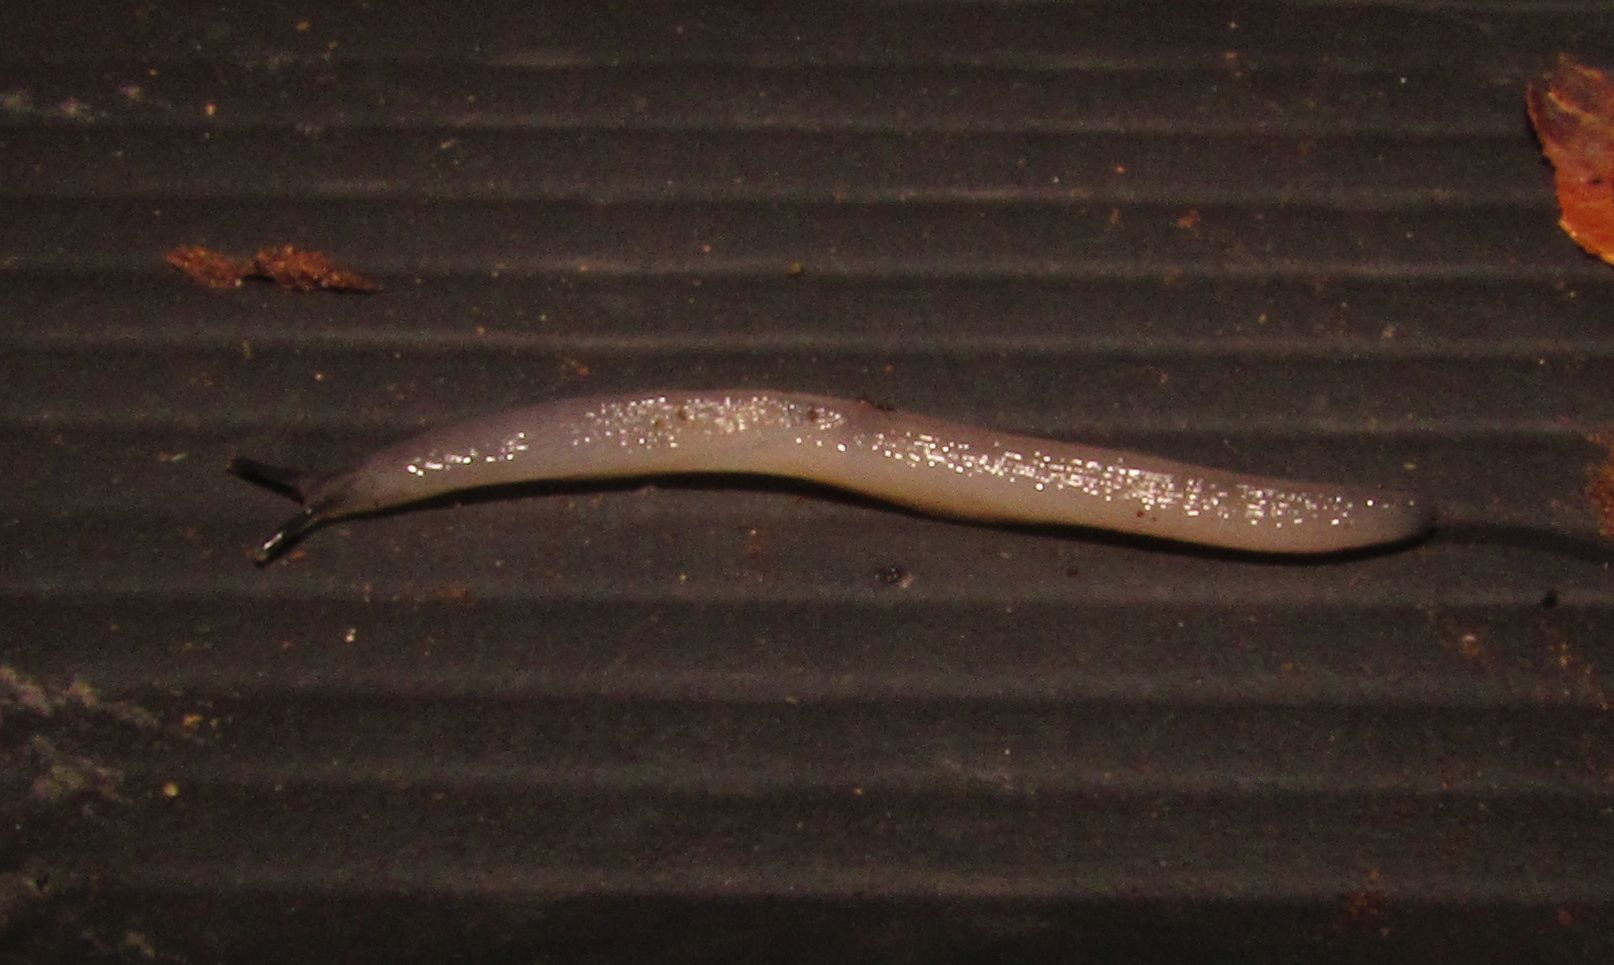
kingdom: Animalia
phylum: Mollusca
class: Gastropoda
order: Stylommatophora
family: Boettgerillidae
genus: Boettgerilla
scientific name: Boettgerilla pallens
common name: Worm slug
